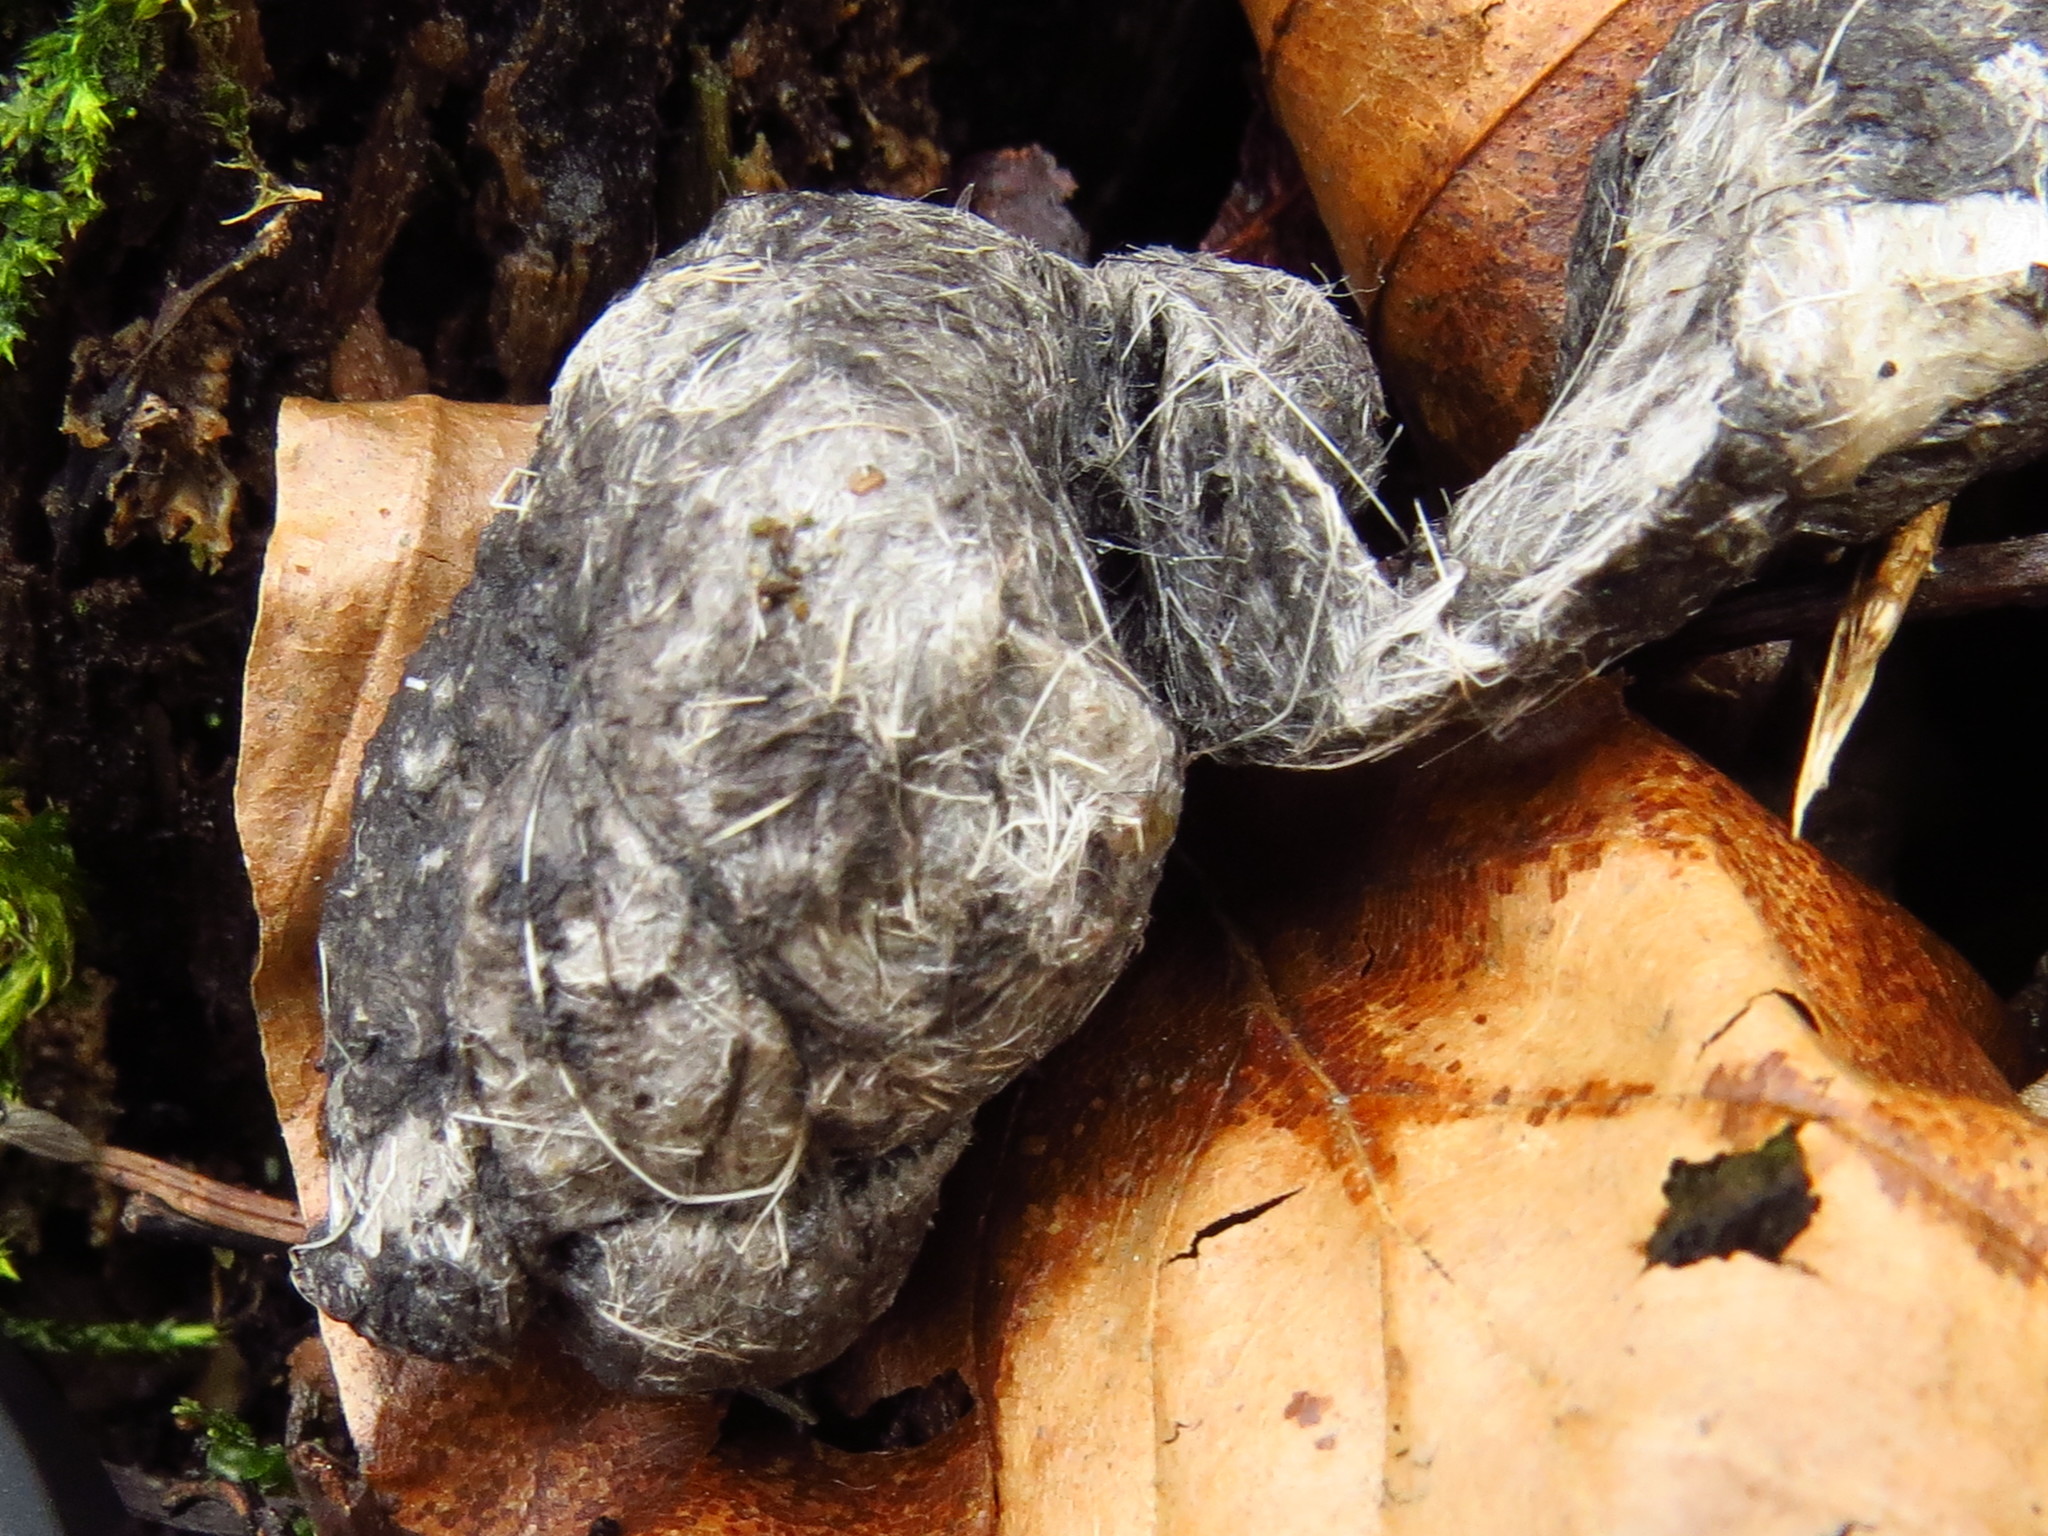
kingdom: Animalia
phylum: Chordata
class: Mammalia
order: Carnivora
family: Canidae
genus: Canis
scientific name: Canis lupus
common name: Gray wolf
